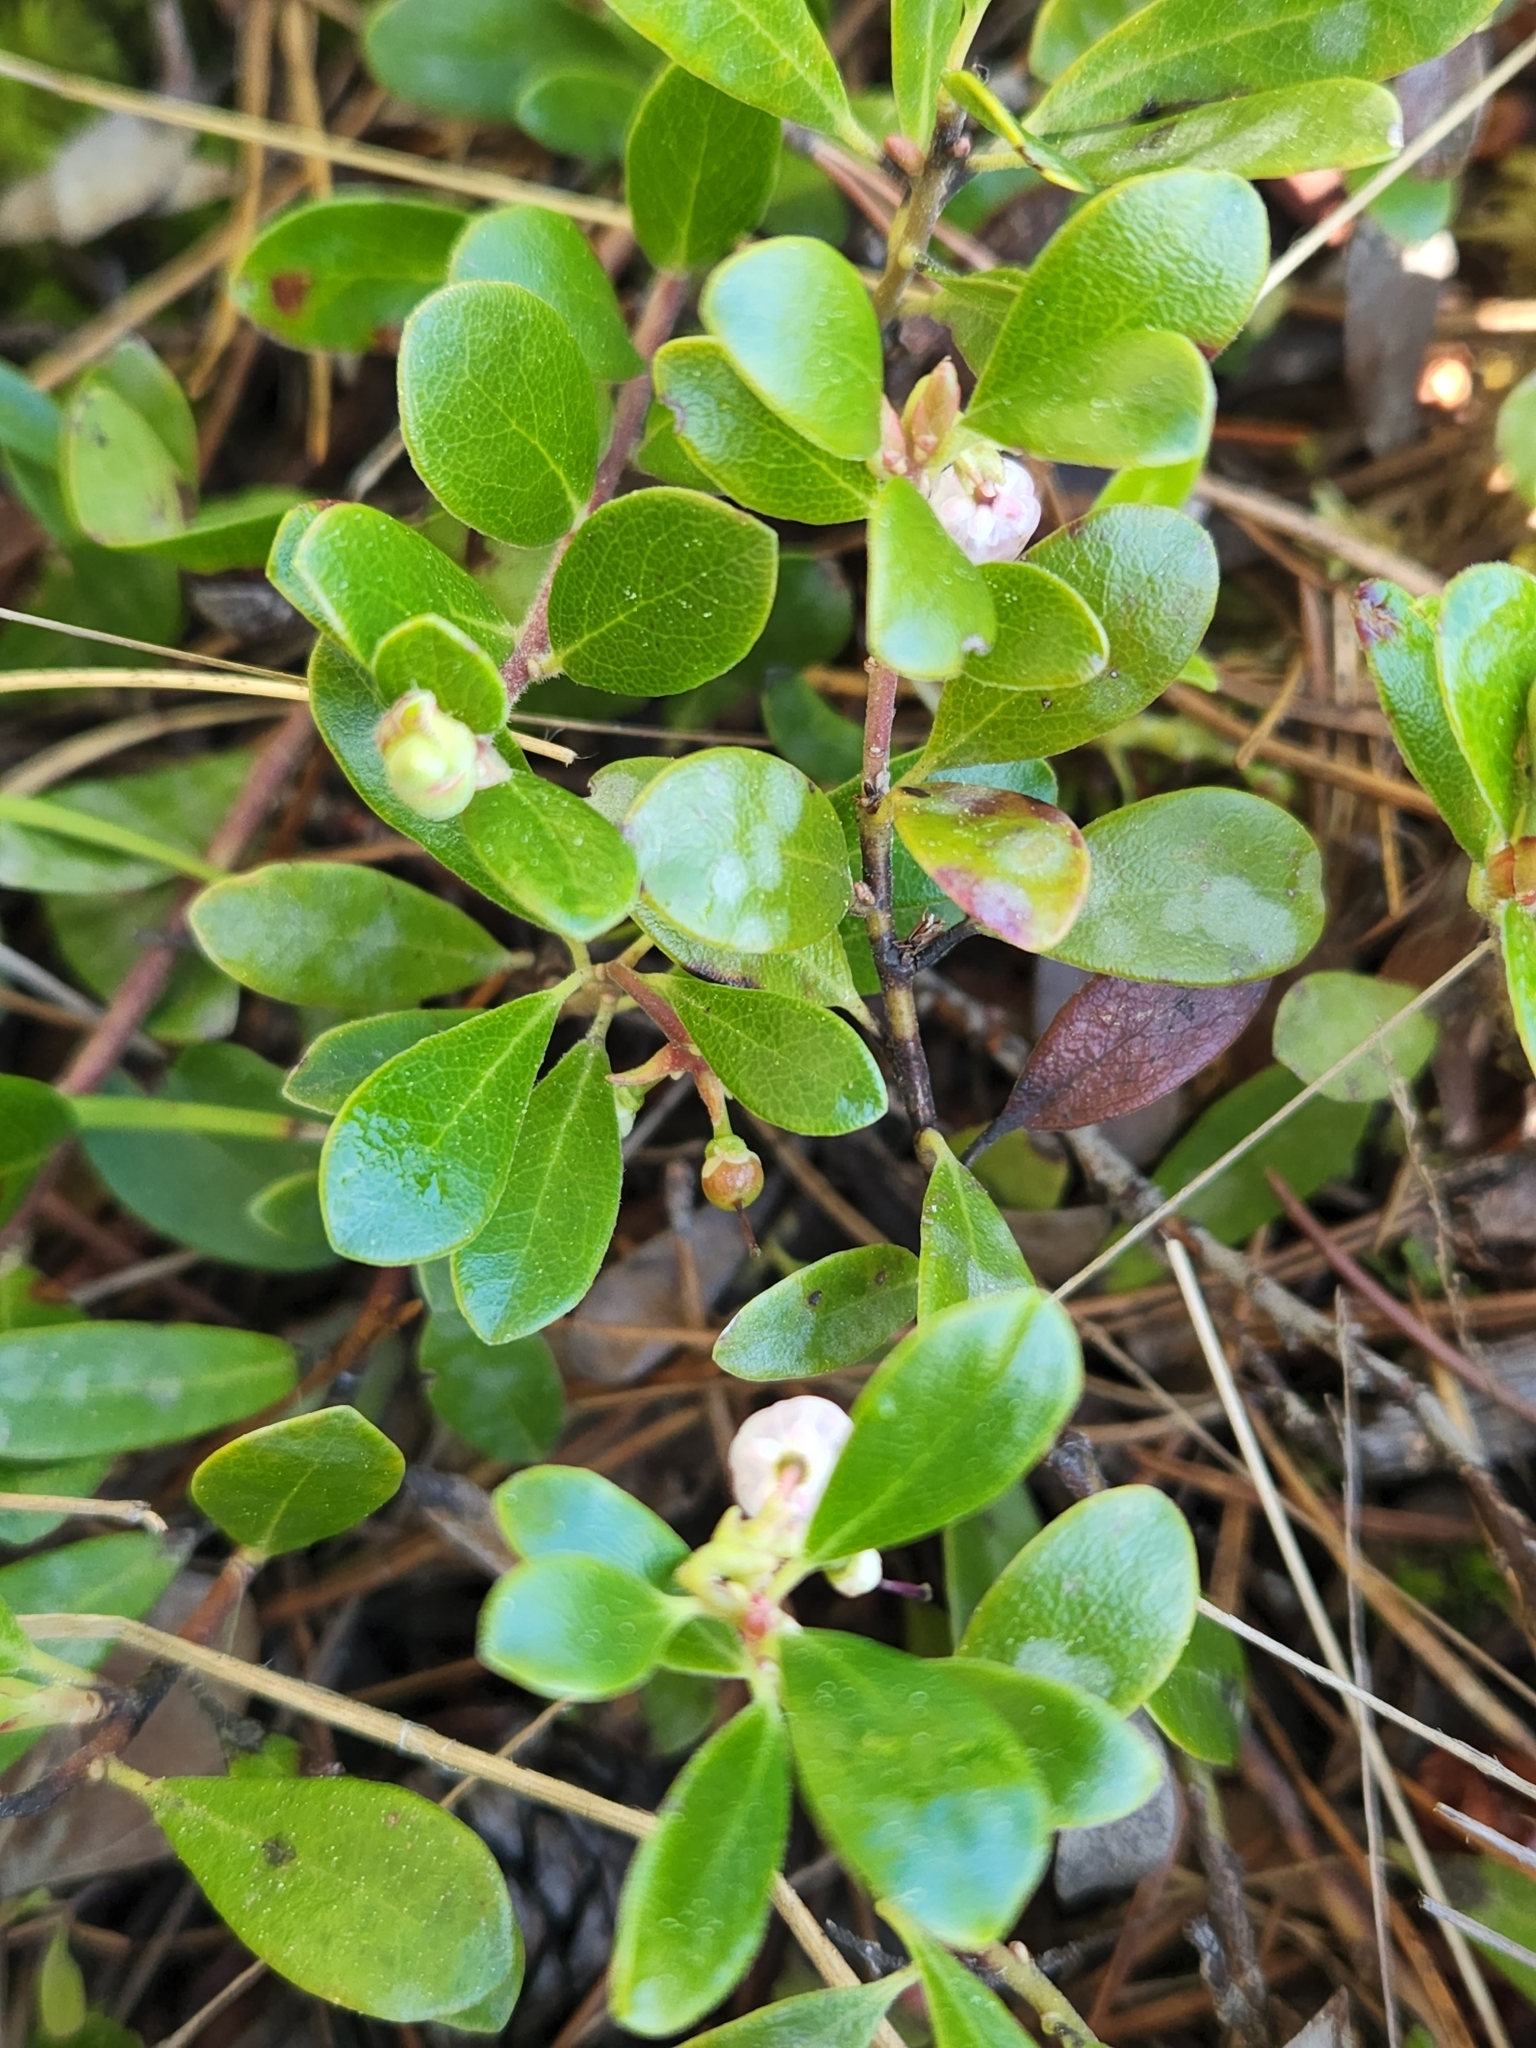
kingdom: Plantae
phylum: Tracheophyta
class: Magnoliopsida
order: Ericales
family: Ericaceae
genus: Arctostaphylos
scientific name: Arctostaphylos uva-ursi
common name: Bearberry
